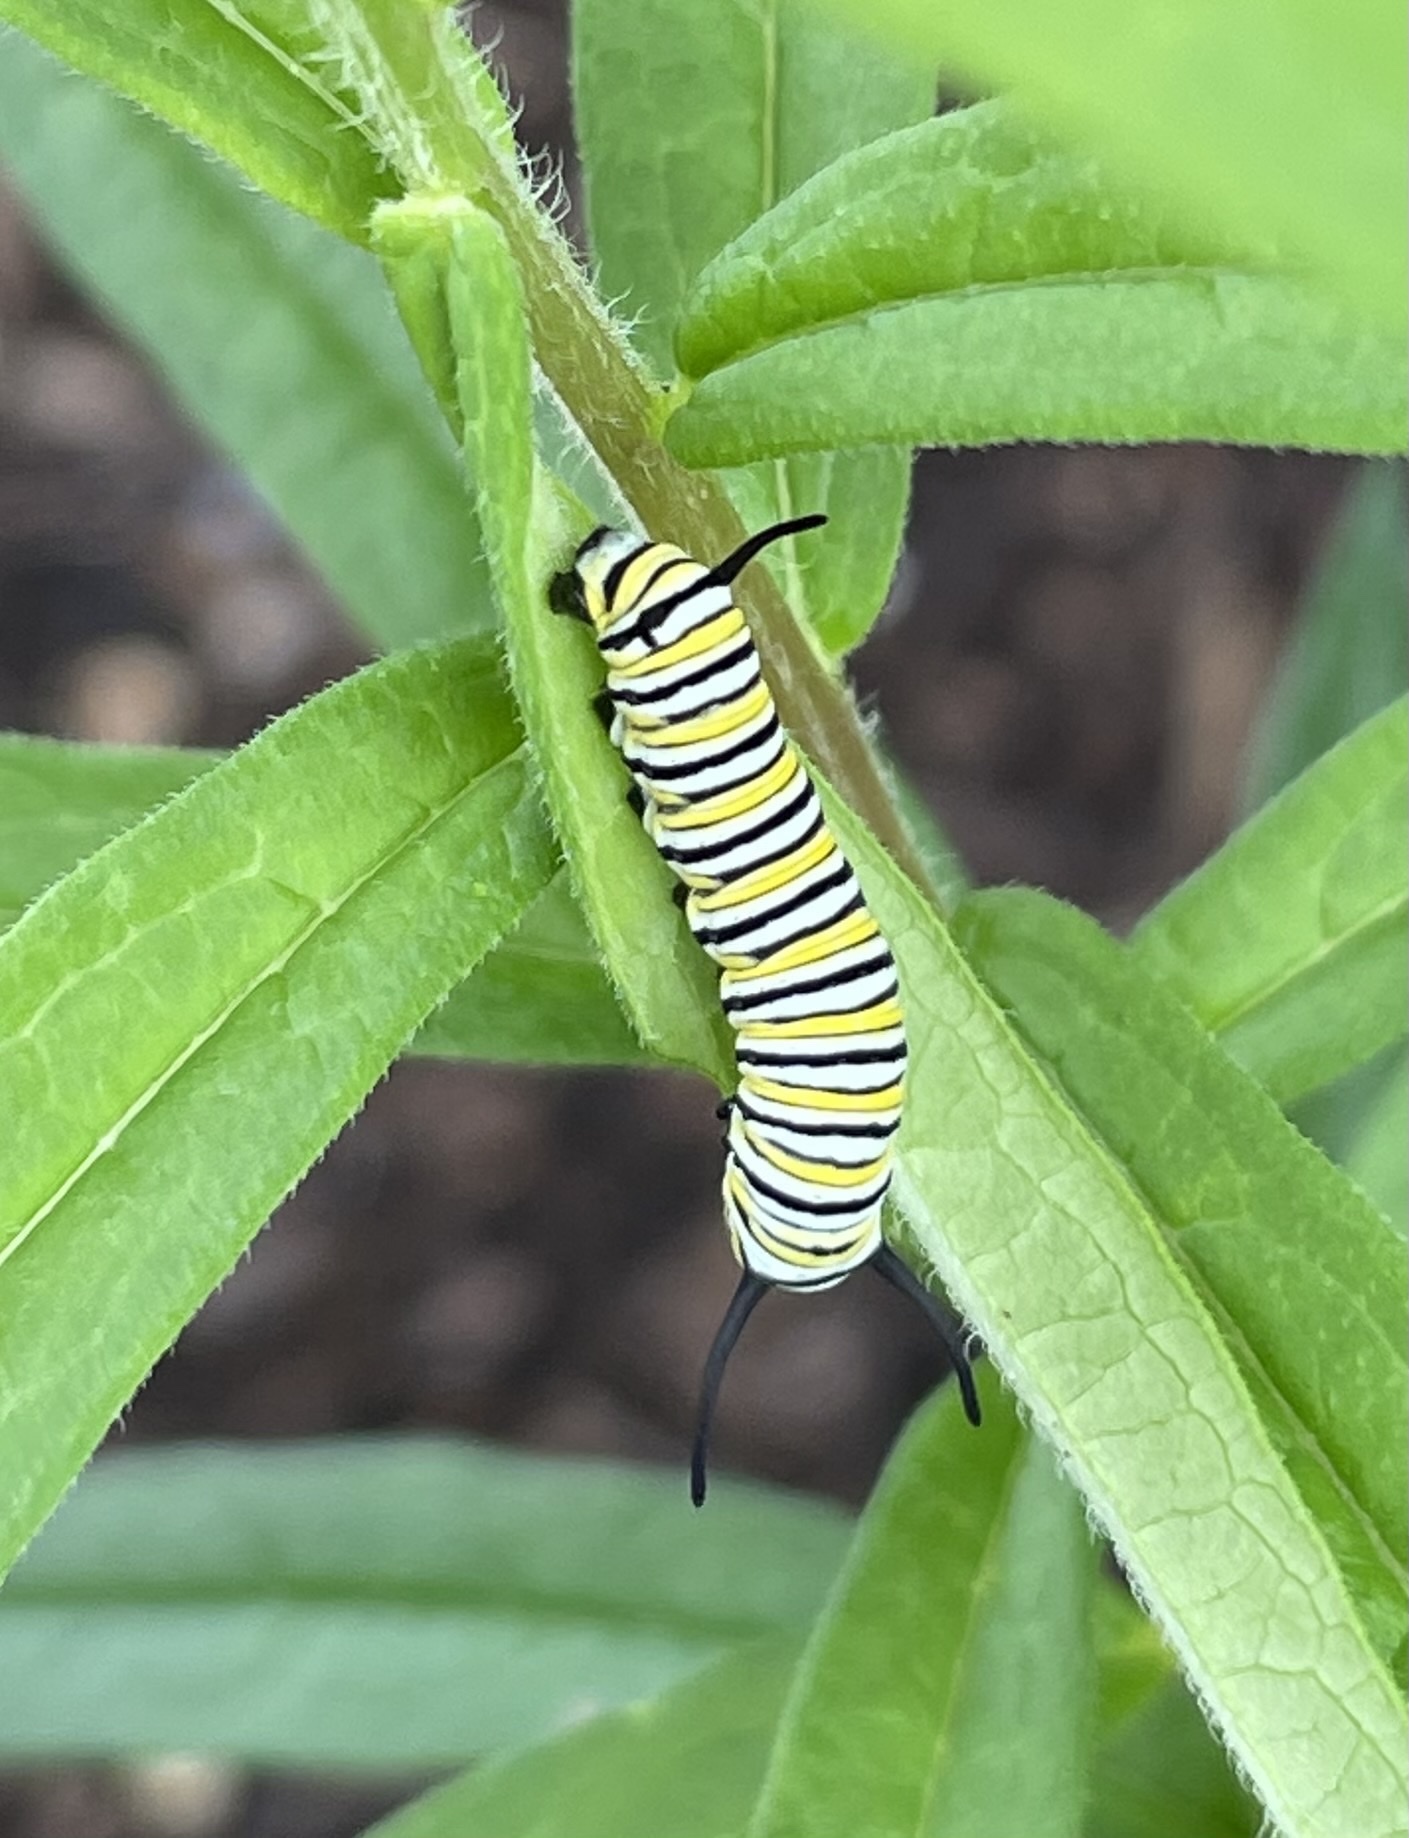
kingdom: Animalia
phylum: Arthropoda
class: Insecta
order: Lepidoptera
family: Nymphalidae
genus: Danaus
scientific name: Danaus plexippus
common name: Monarch
